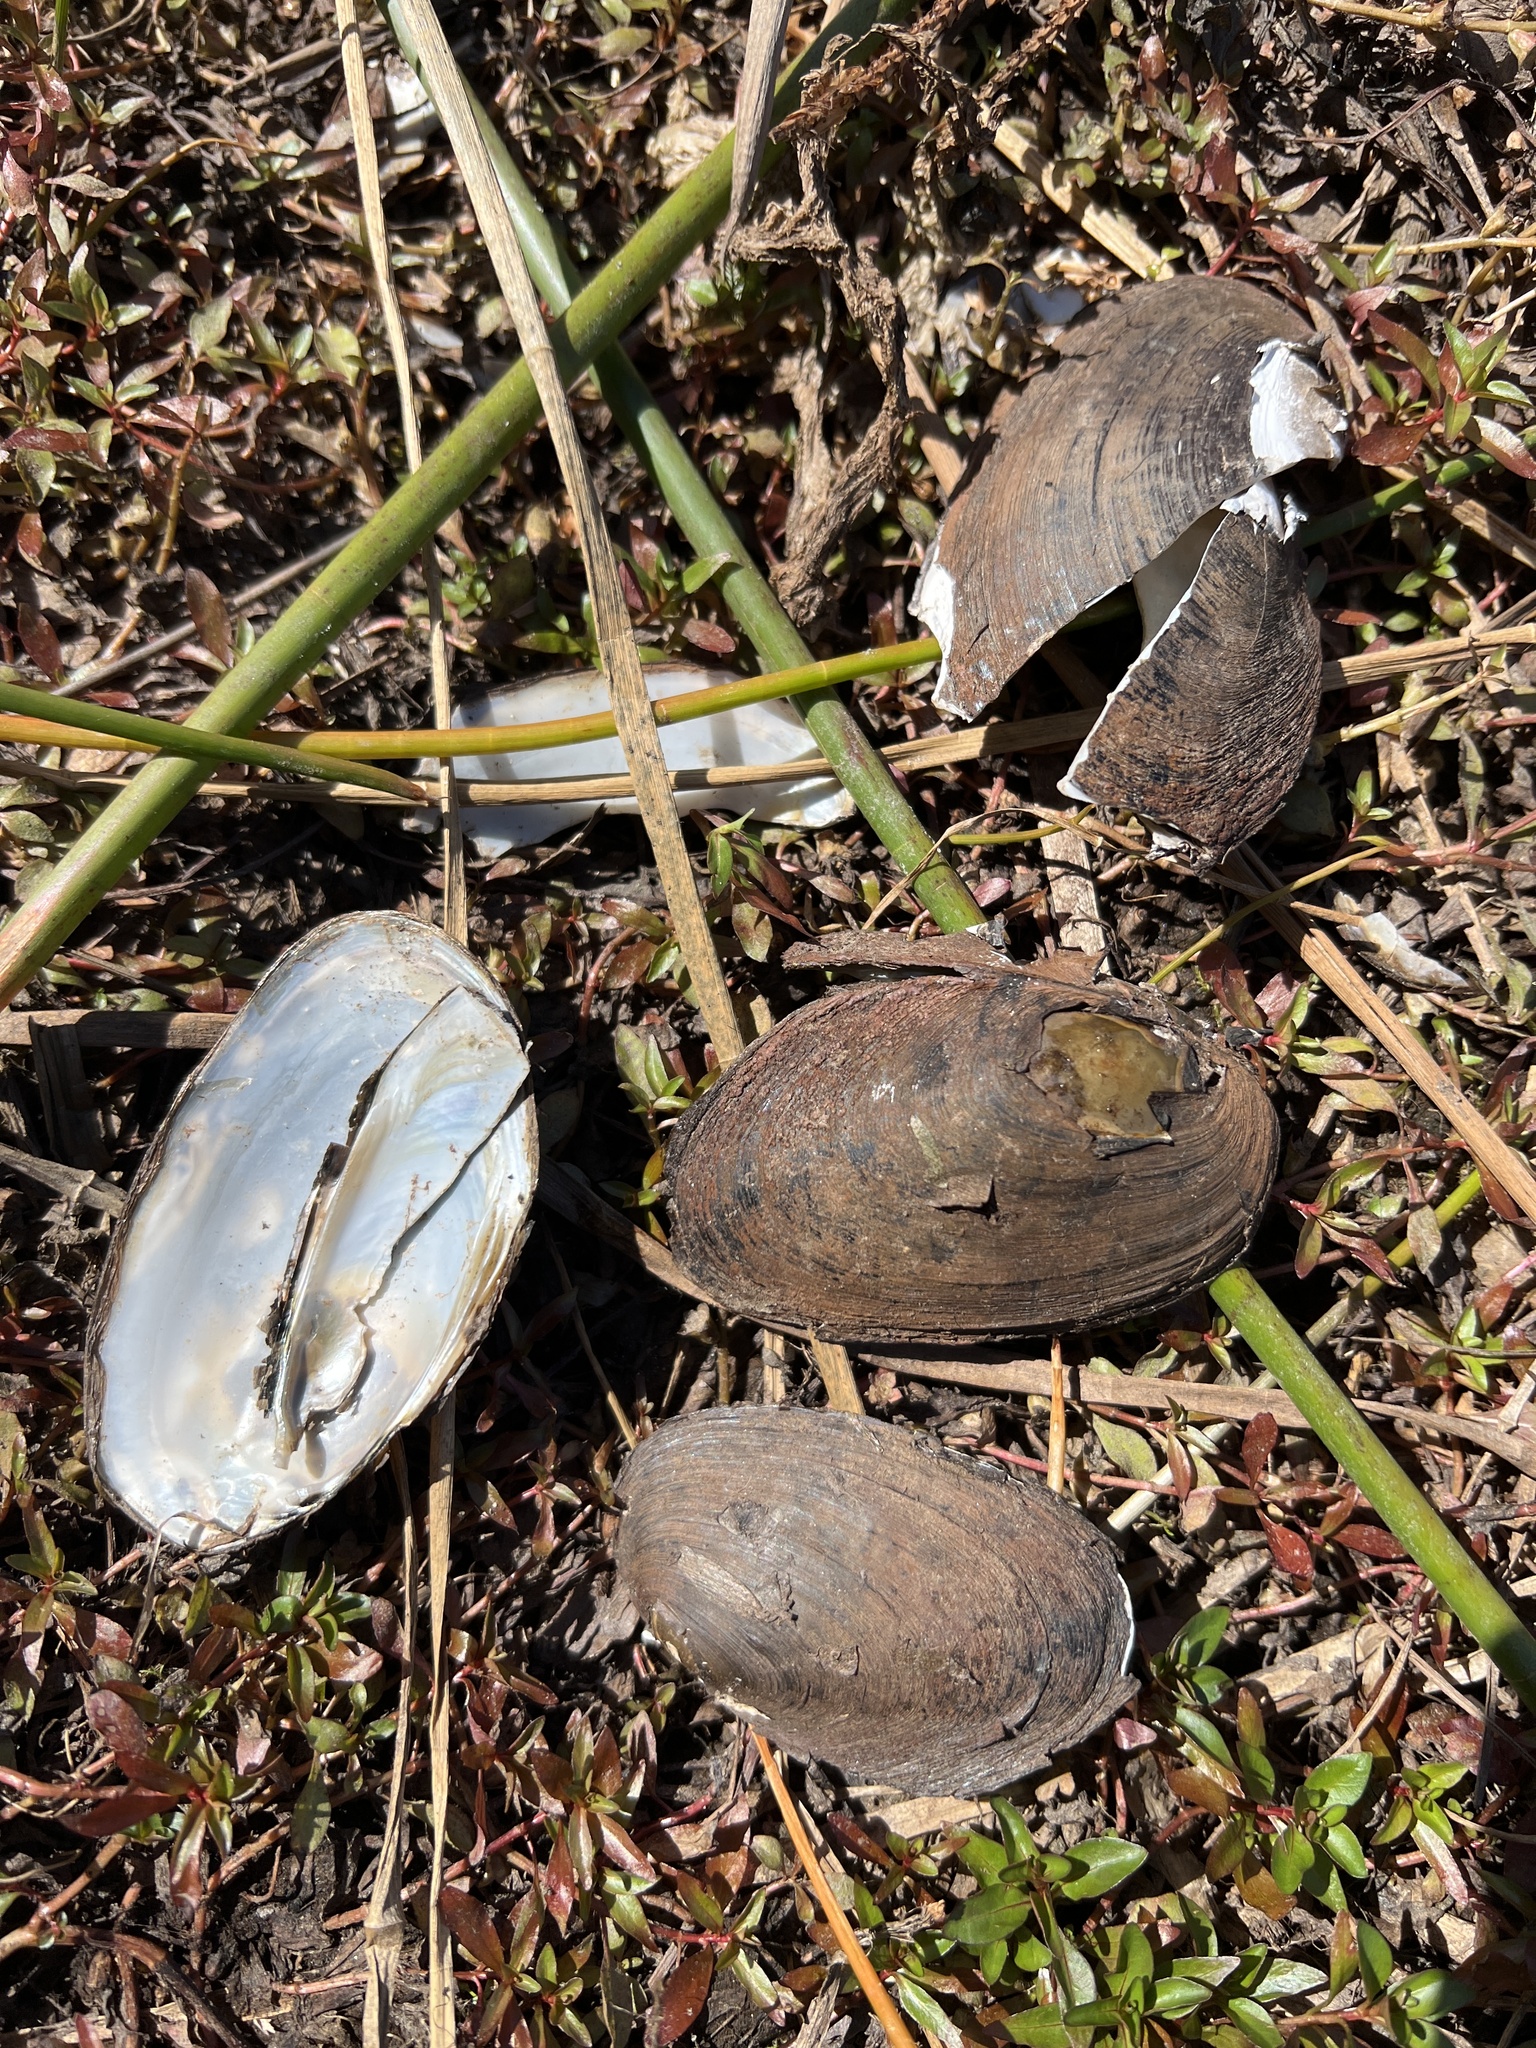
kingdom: Animalia
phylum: Mollusca
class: Bivalvia
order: Unionida
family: Hyriidae
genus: Echyridella
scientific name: Echyridella menziesii
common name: New zealand freshwater mussel
